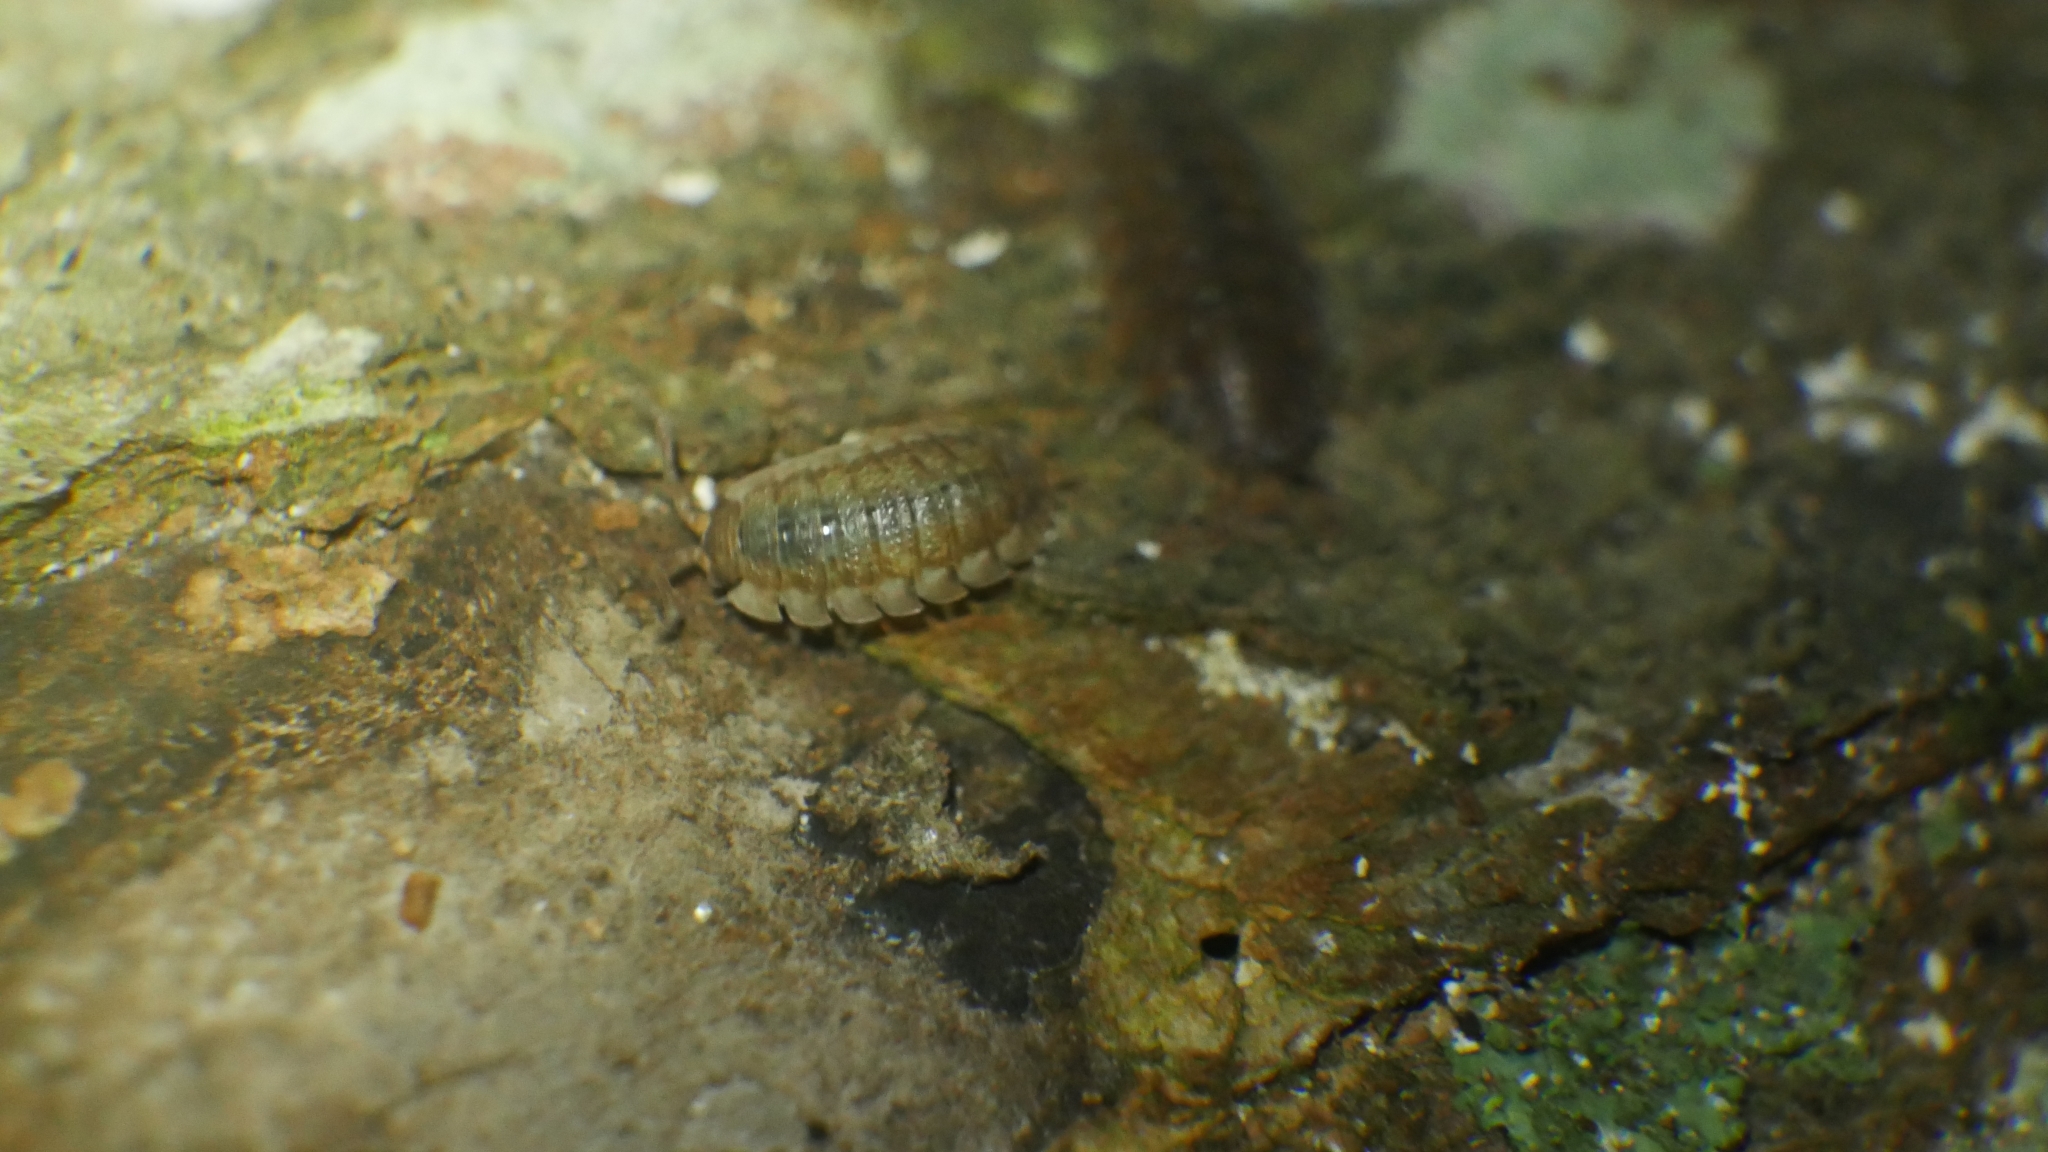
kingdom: Animalia
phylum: Arthropoda
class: Malacostraca
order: Isopoda
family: Porcellionidae
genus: Porcellio
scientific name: Porcellio scaber
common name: Common rough woodlouse
